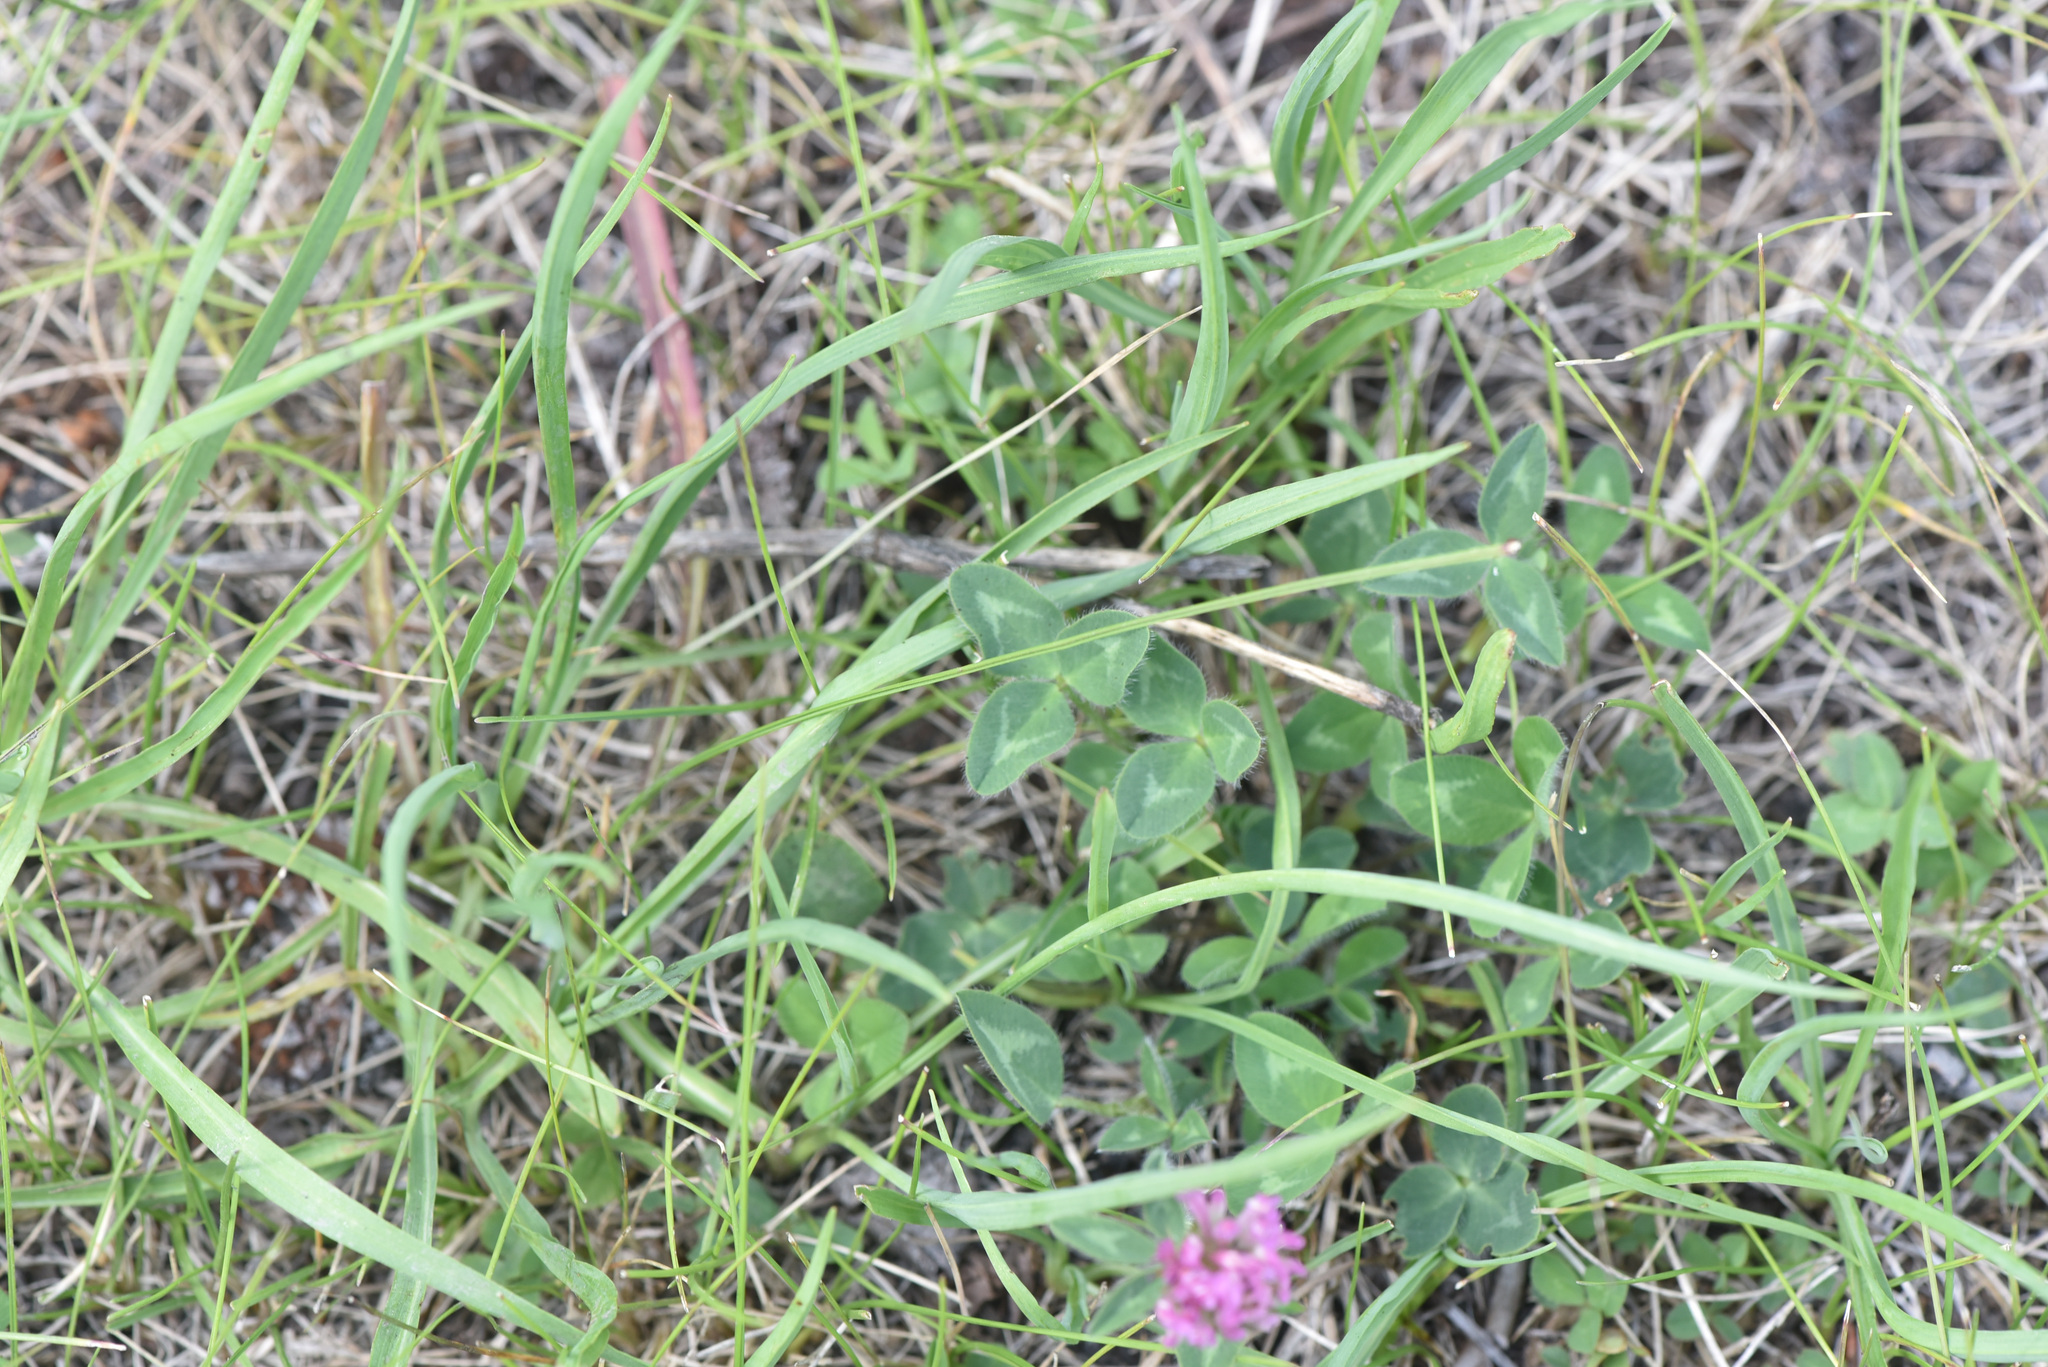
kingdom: Plantae
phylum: Tracheophyta
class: Magnoliopsida
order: Fabales
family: Fabaceae
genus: Trifolium
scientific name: Trifolium pratense
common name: Red clover
